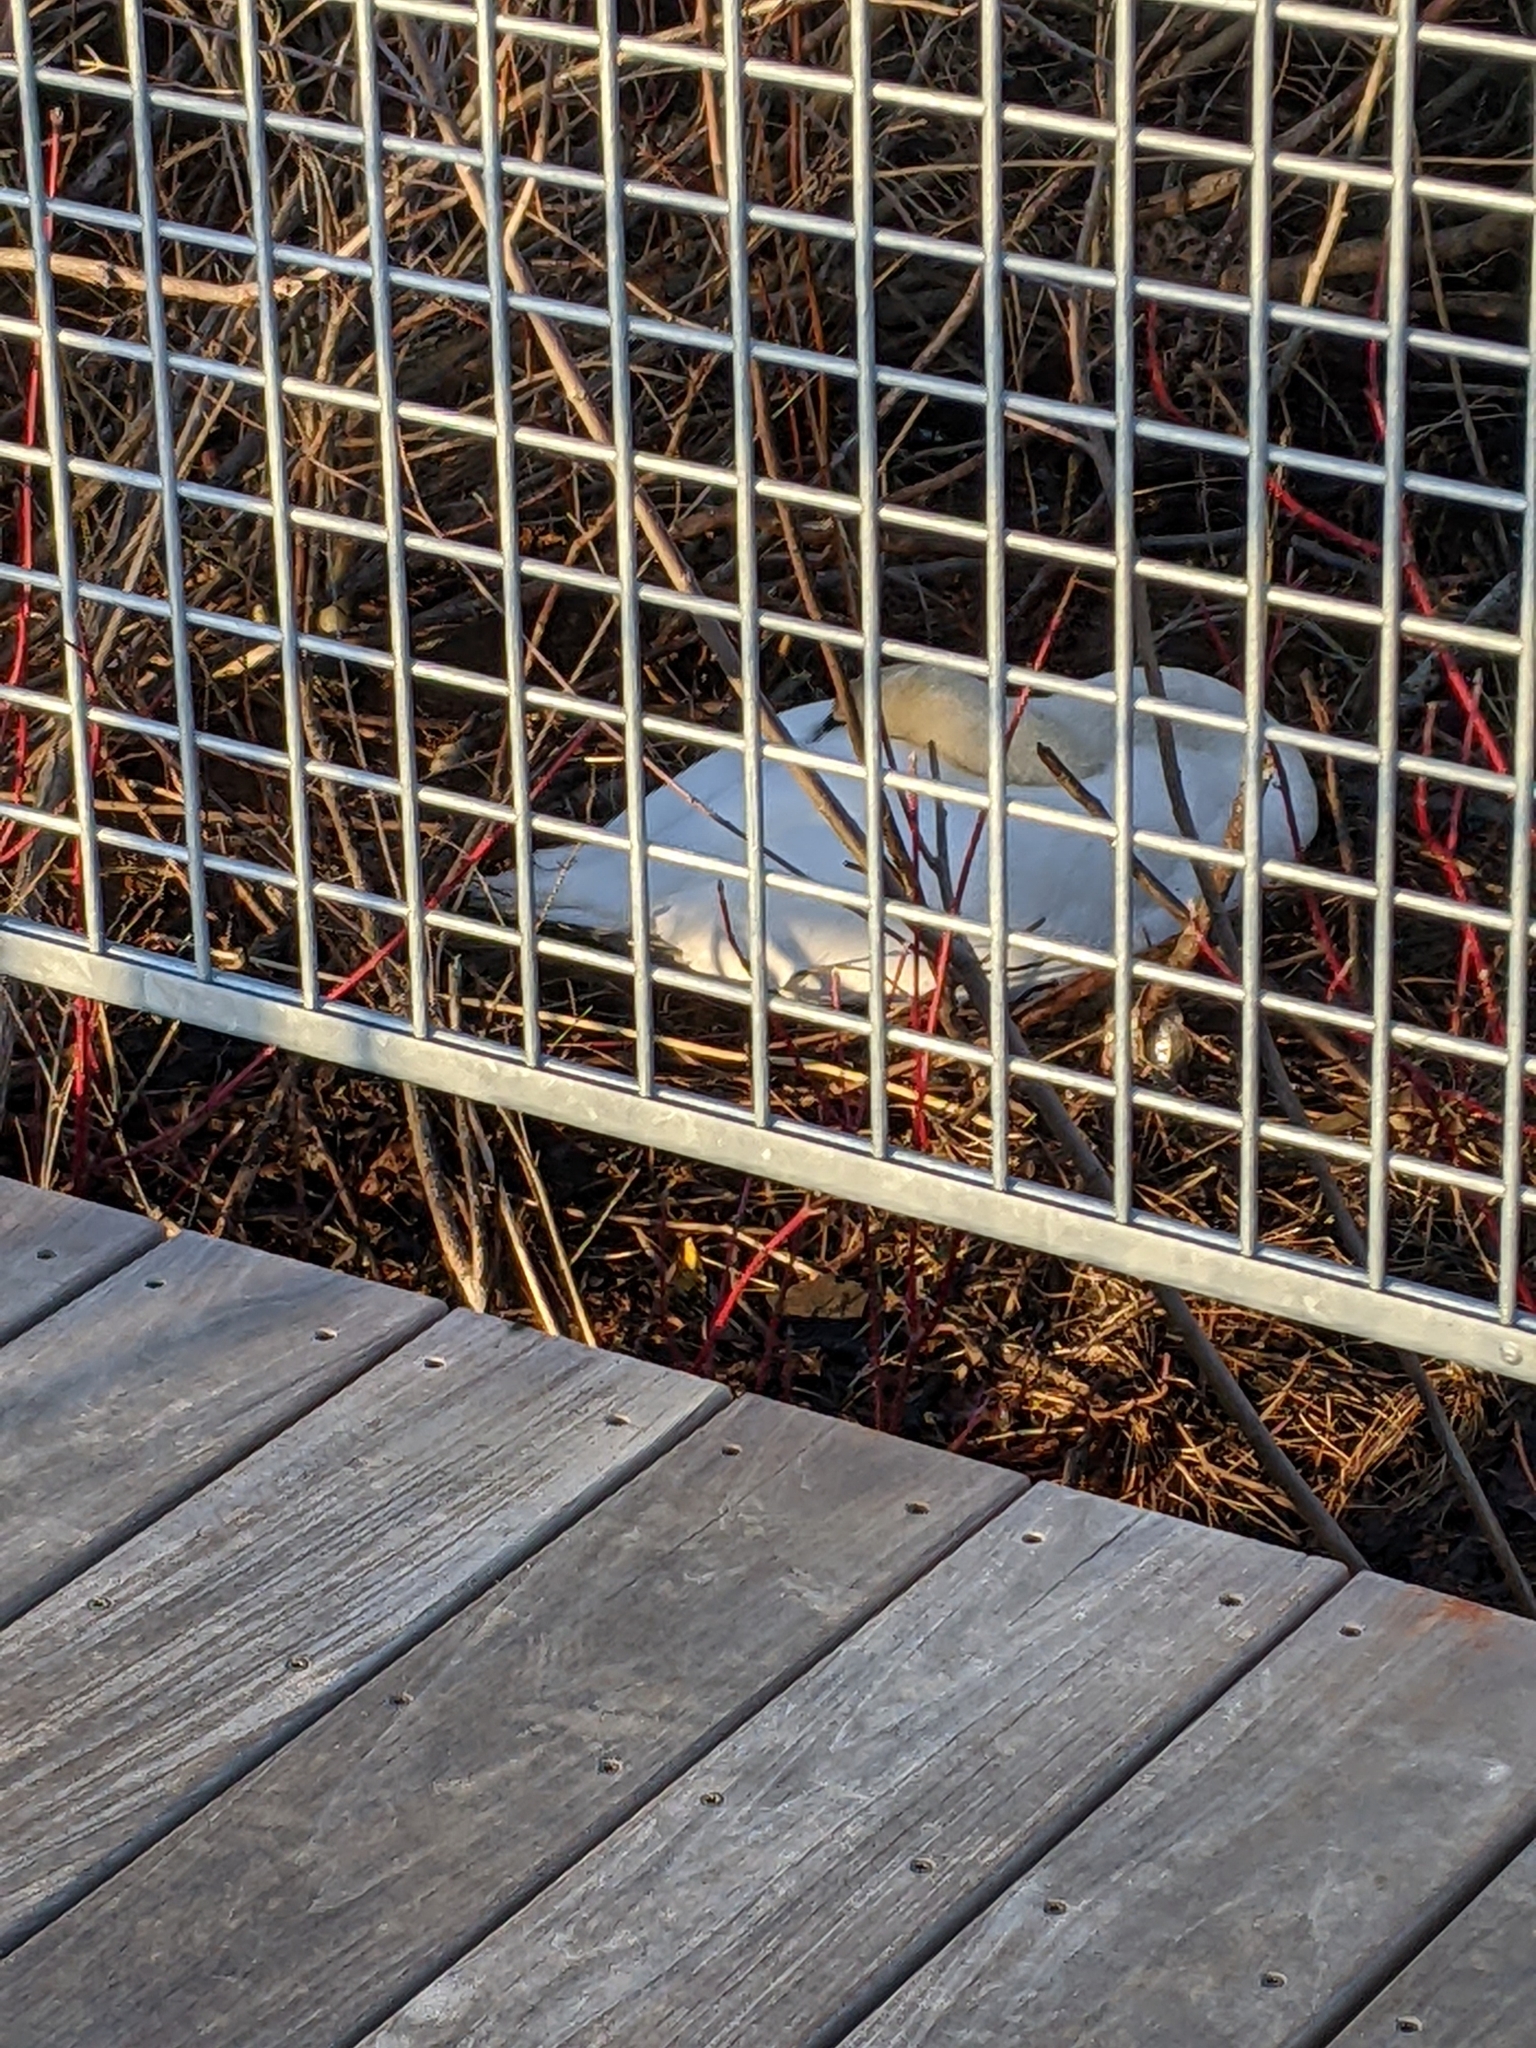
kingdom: Animalia
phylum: Chordata
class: Aves
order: Anseriformes
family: Anatidae
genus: Cygnus
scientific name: Cygnus olor
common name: Mute swan
